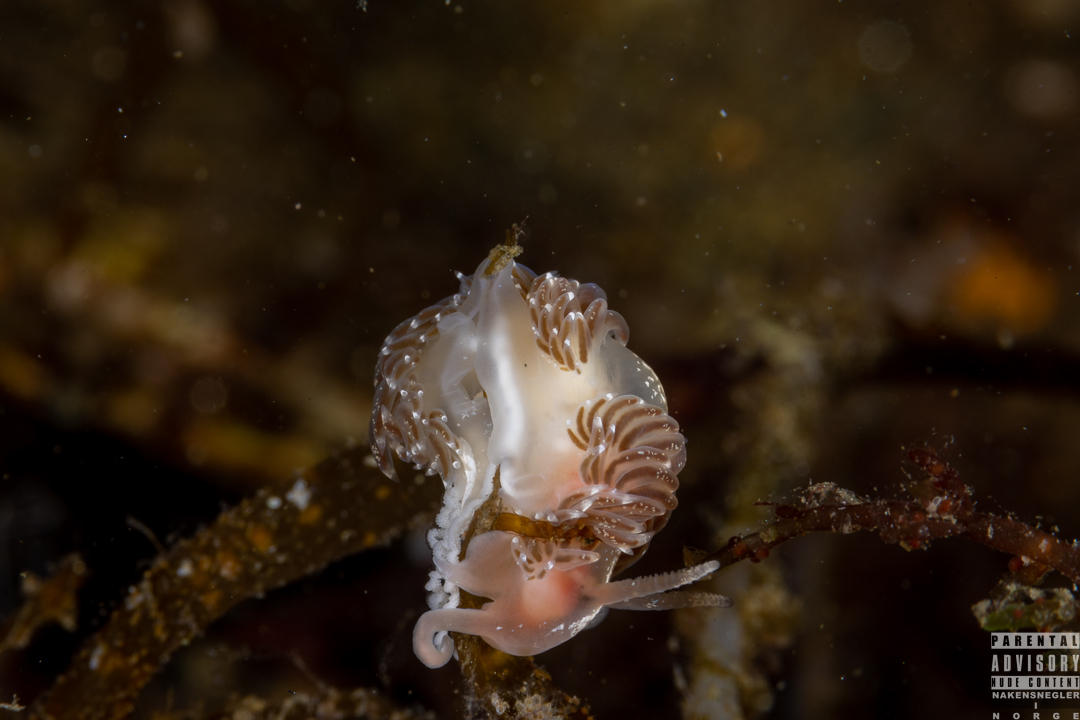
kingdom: Animalia
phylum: Mollusca
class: Gastropoda
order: Nudibranchia
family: Facelinidae
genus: Facelina
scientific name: Facelina bostoniensis
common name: Boston facelina
